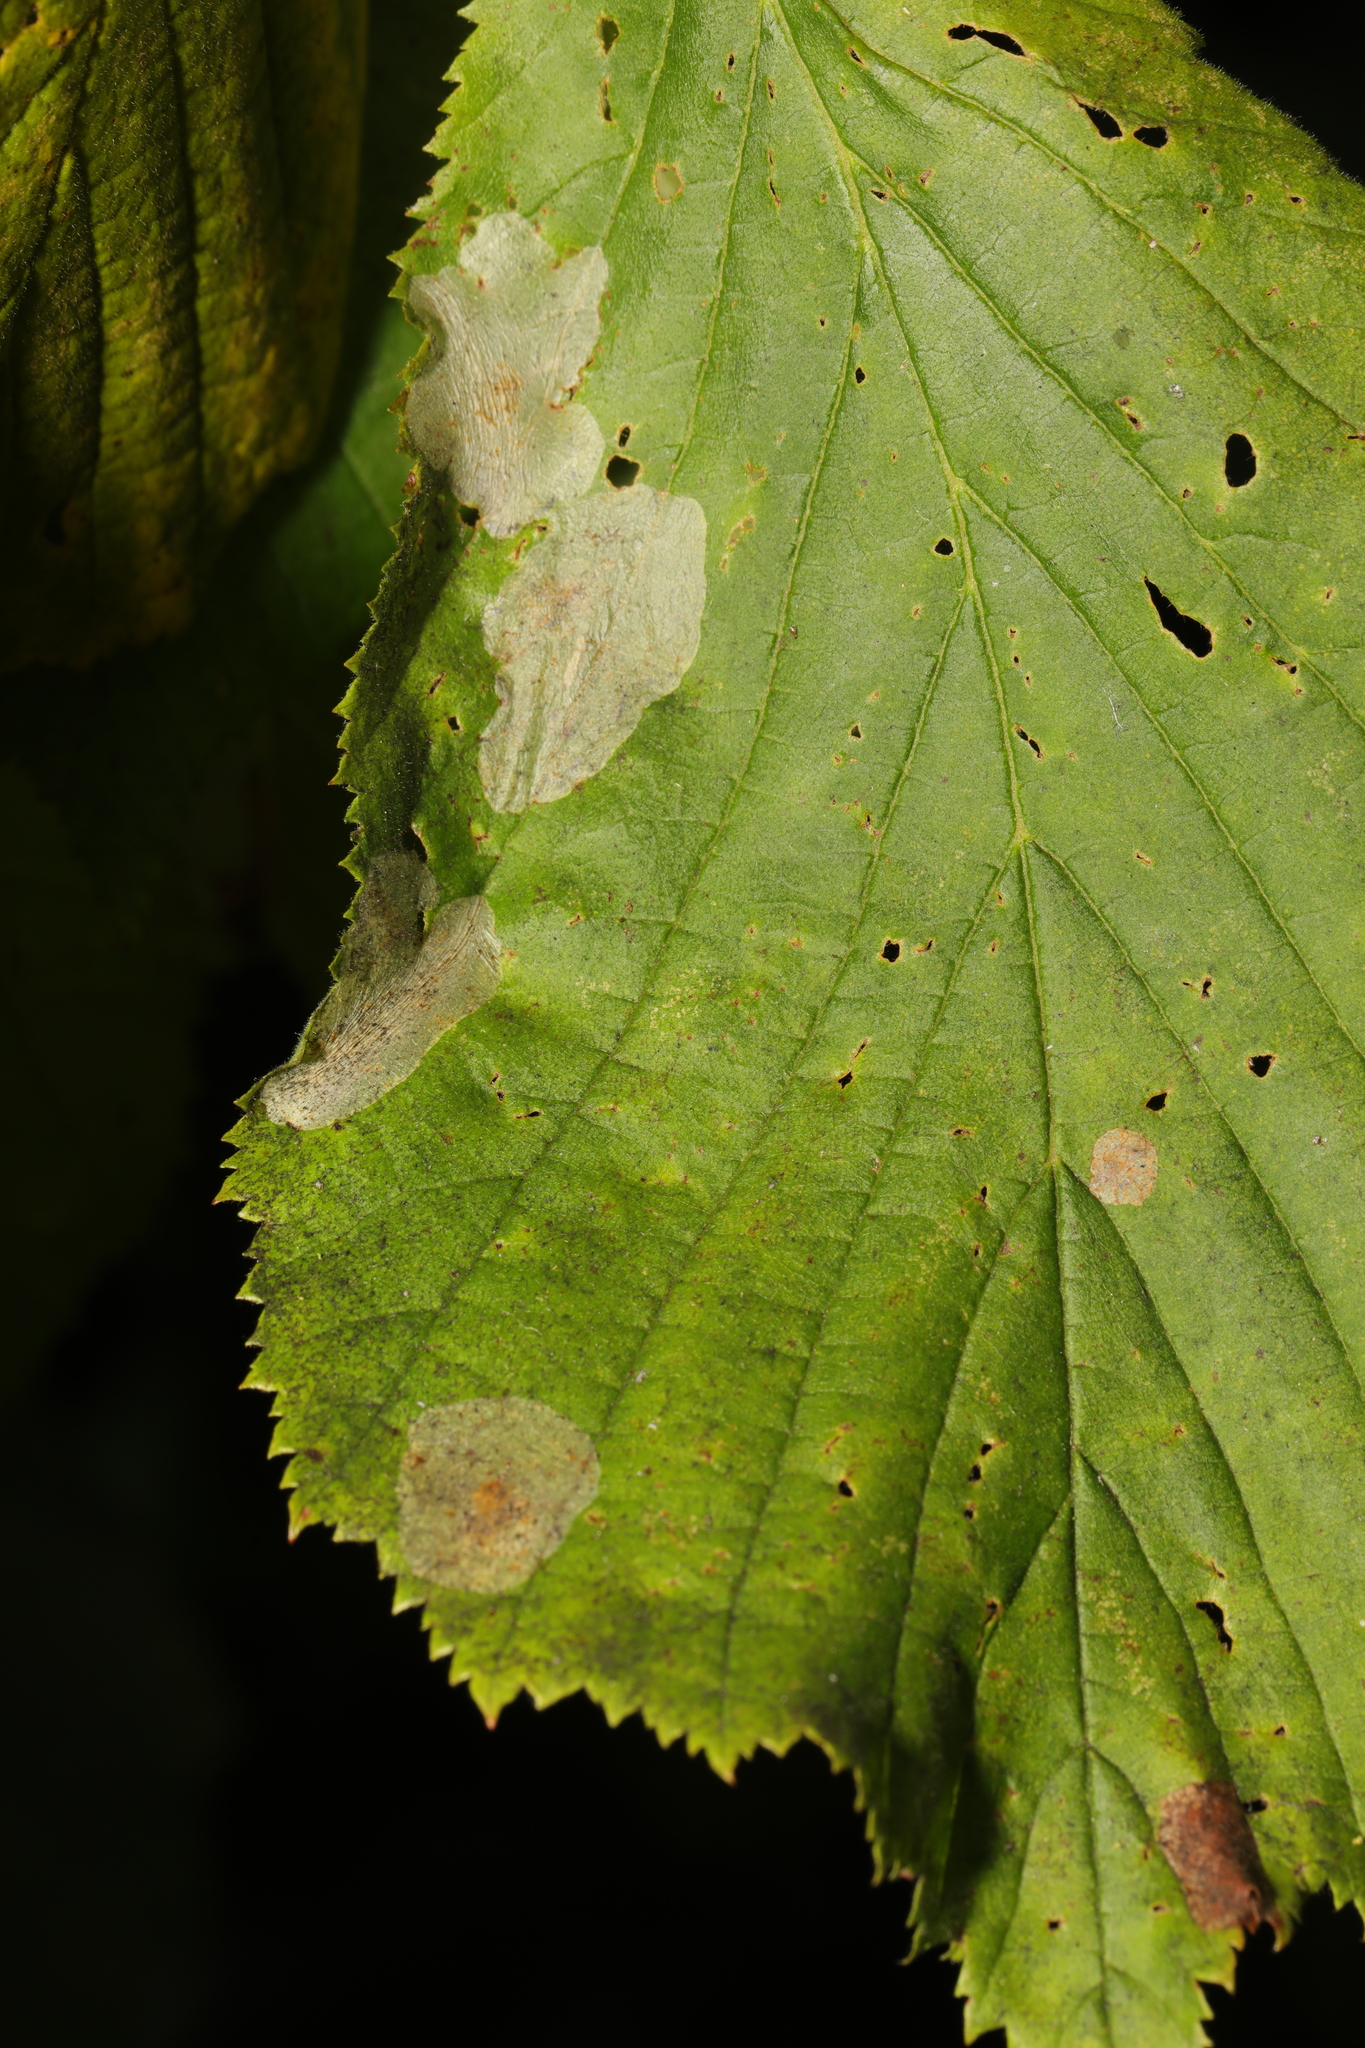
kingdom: Animalia
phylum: Arthropoda
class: Insecta
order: Lepidoptera
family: Gracillariidae
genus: Phyllonorycter
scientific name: Phyllonorycter coryli
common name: Nut-leaf blister moth
